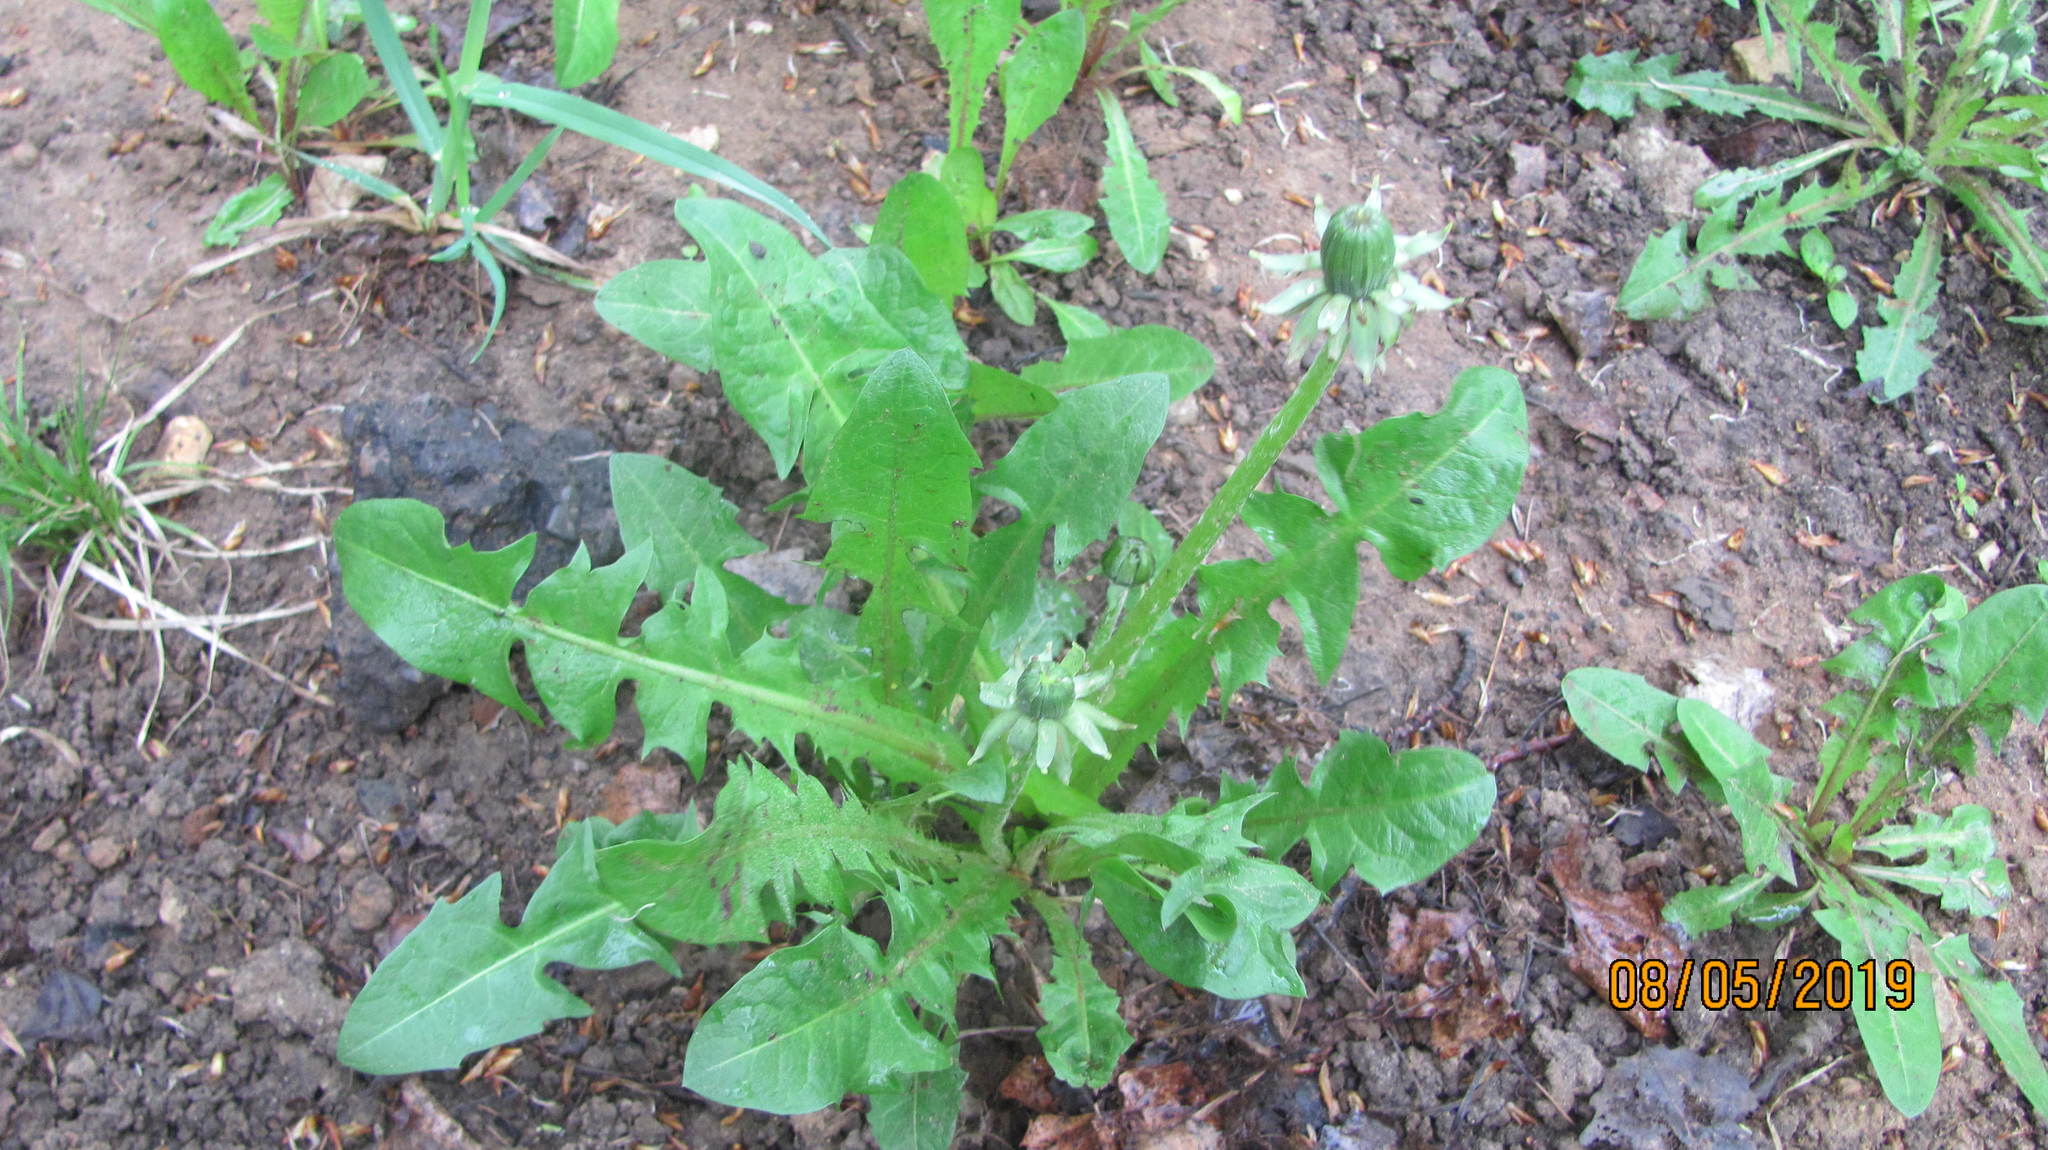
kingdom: Plantae
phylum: Tracheophyta
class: Magnoliopsida
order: Asterales
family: Asteraceae
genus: Taraxacum
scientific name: Taraxacum officinale
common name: Common dandelion
